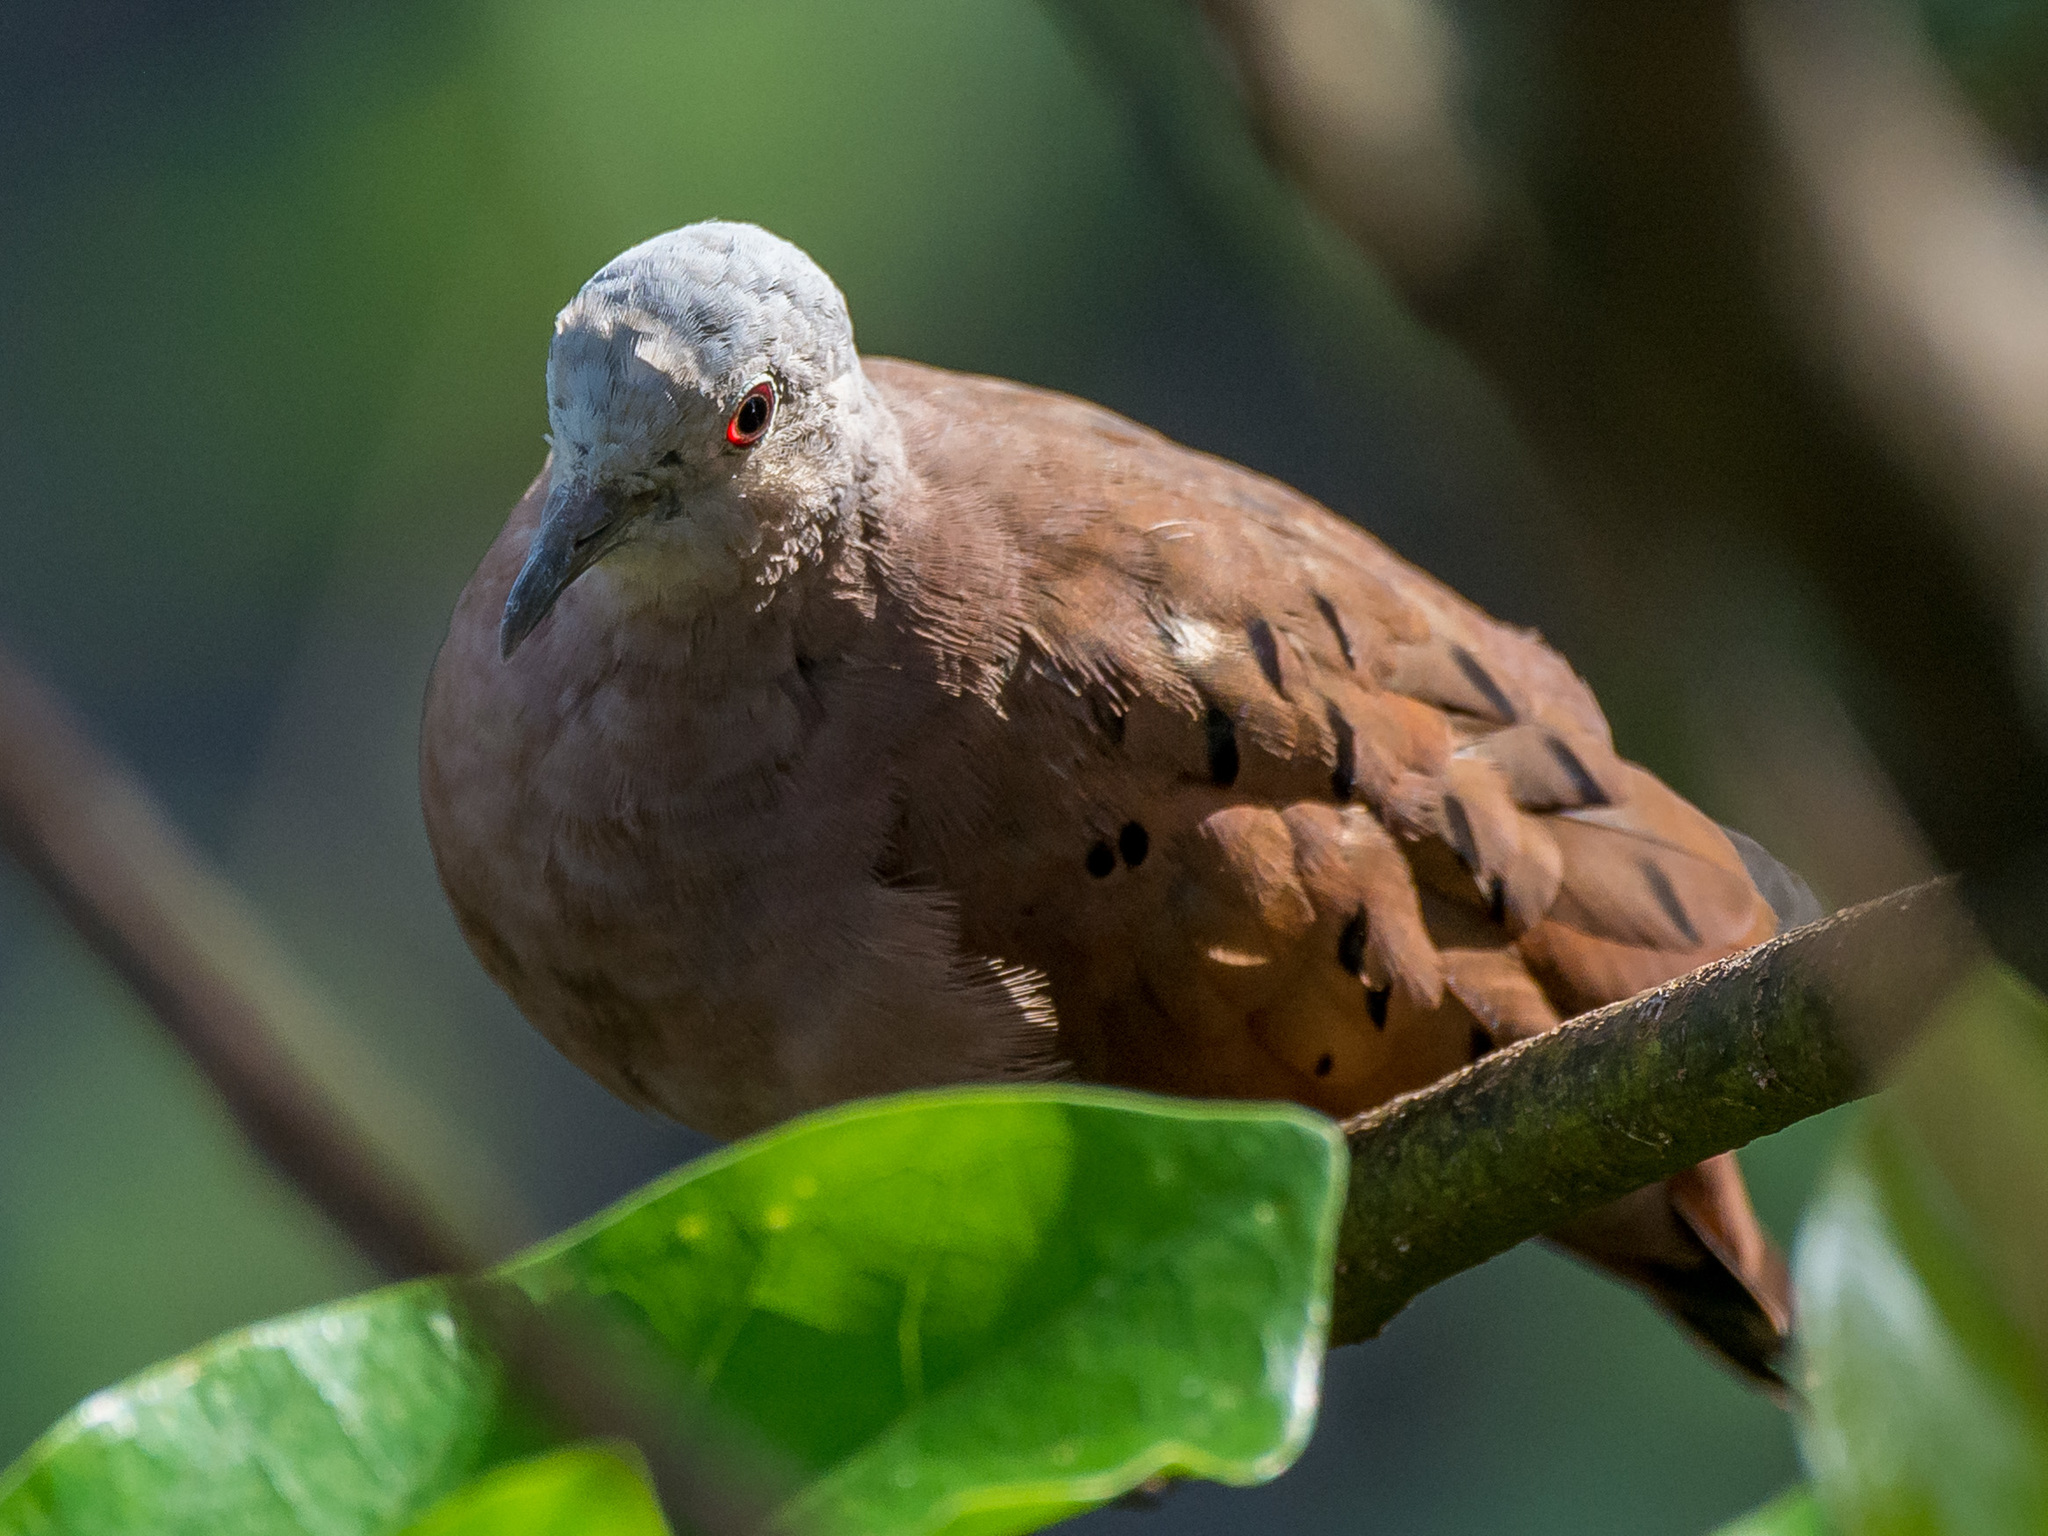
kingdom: Animalia
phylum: Chordata
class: Aves
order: Columbiformes
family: Columbidae
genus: Columbina
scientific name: Columbina talpacoti
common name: Ruddy ground dove
